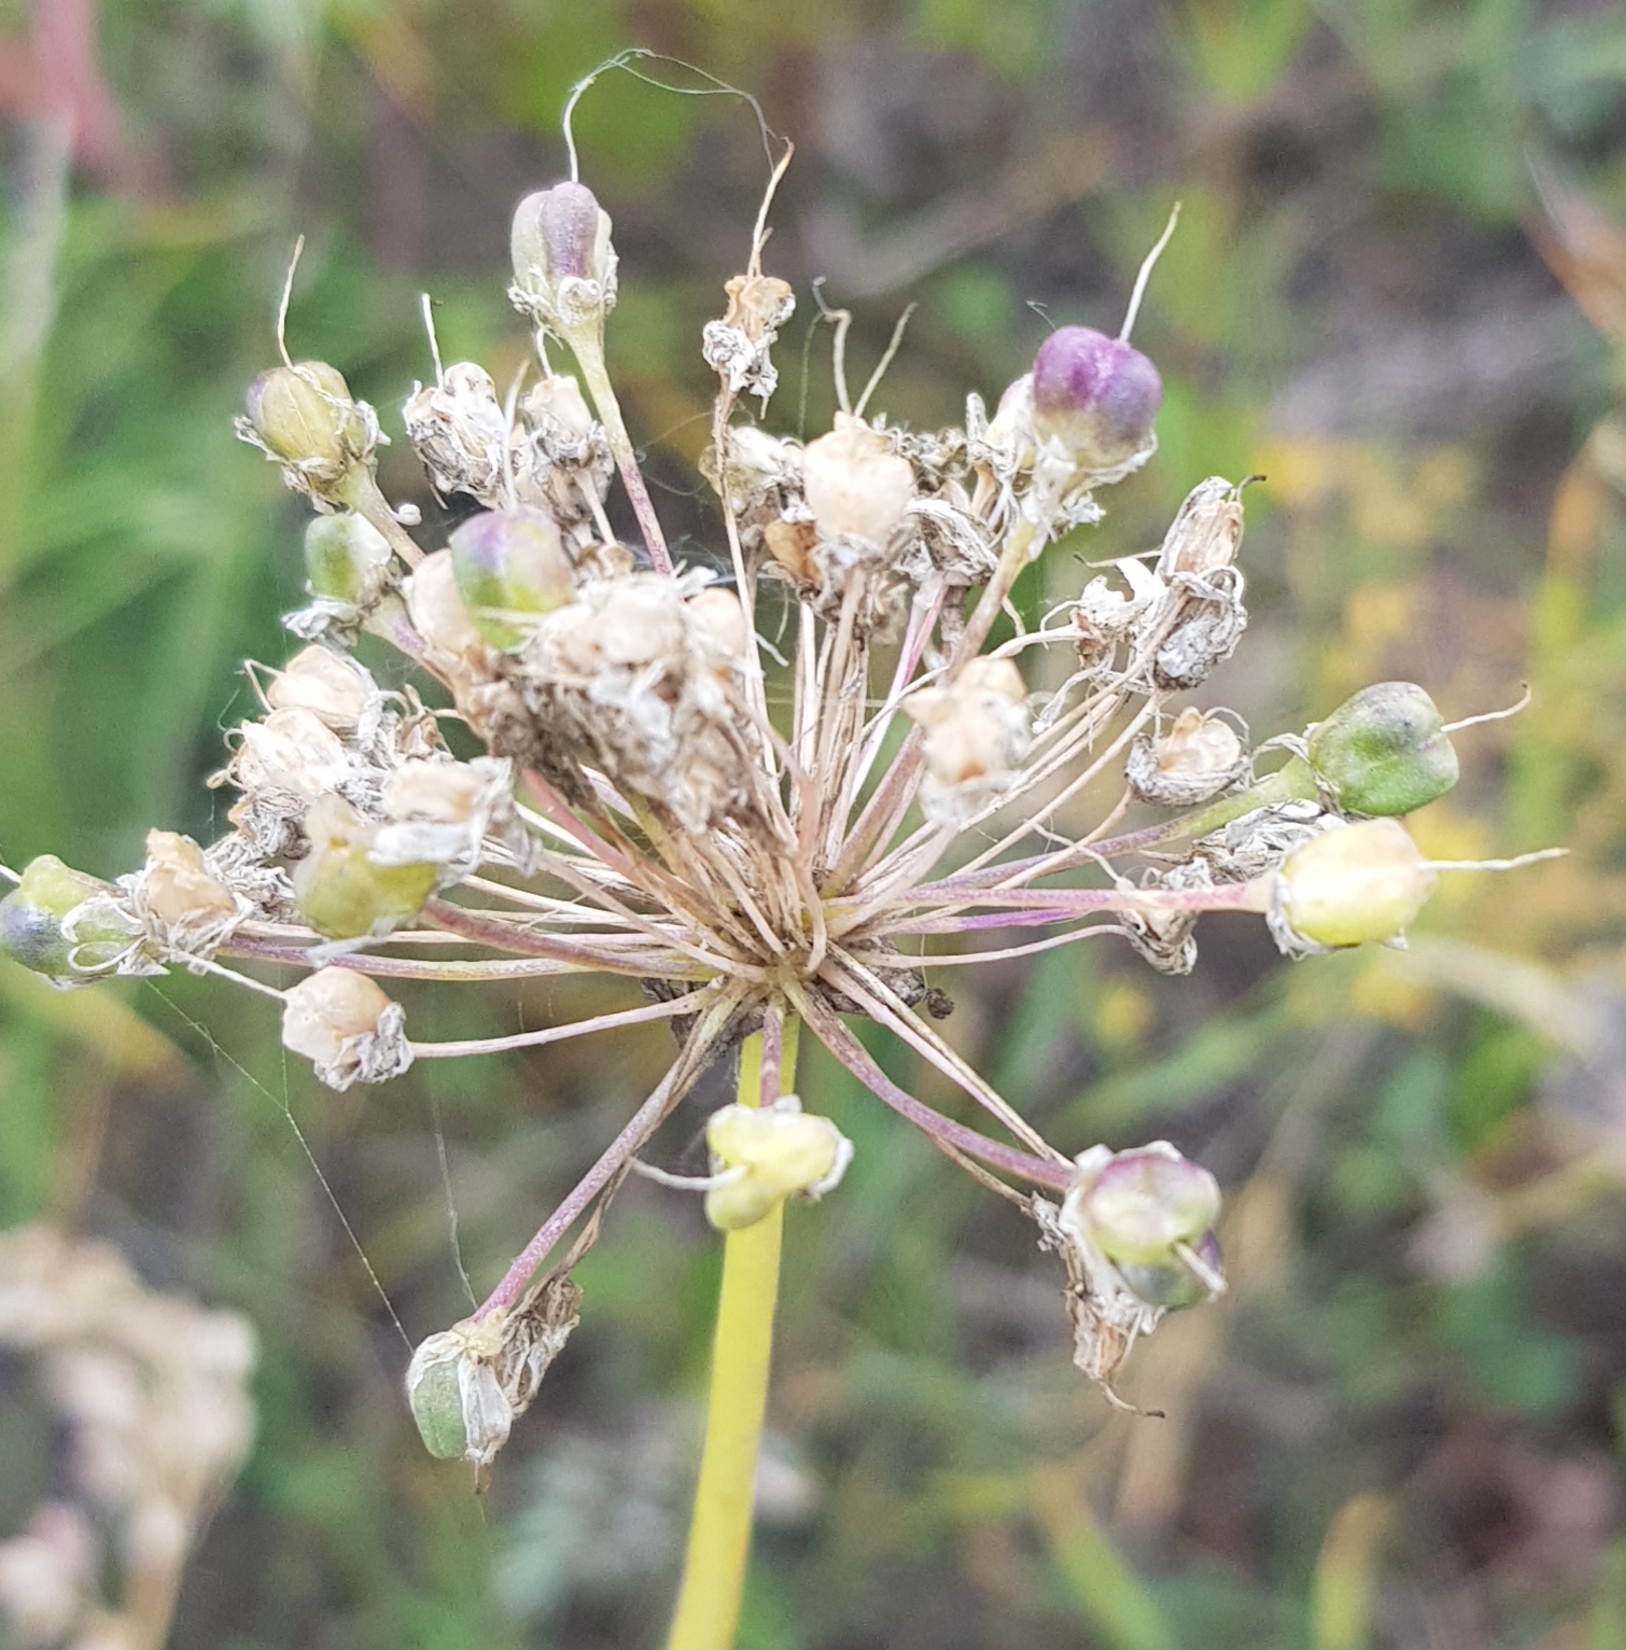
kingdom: Plantae
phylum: Tracheophyta
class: Liliopsida
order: Asparagales
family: Amaryllidaceae
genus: Allium
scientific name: Allium senescens
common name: German garlic
